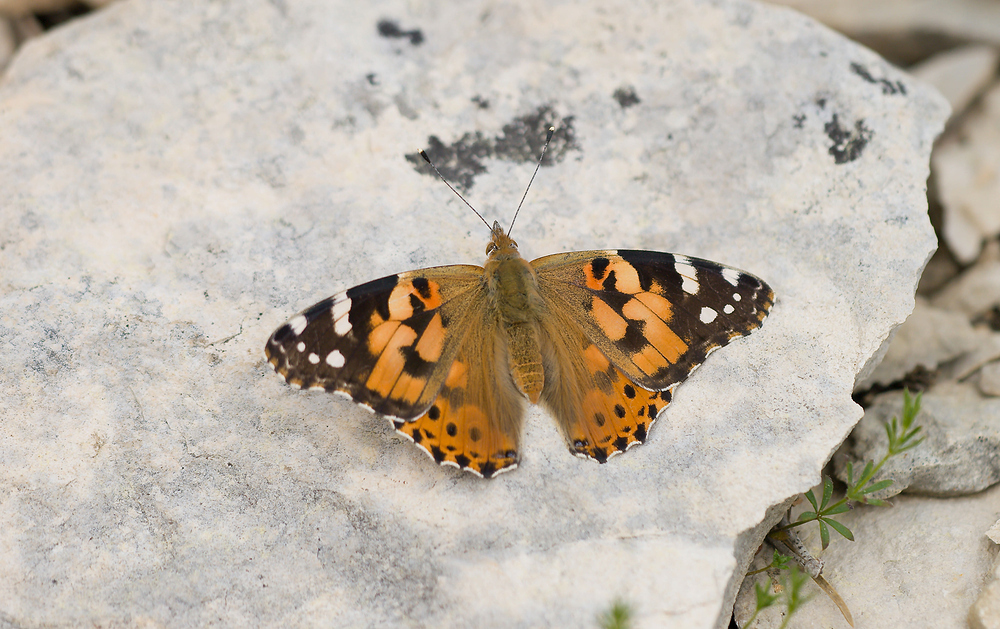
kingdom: Animalia
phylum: Arthropoda
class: Insecta
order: Lepidoptera
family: Nymphalidae
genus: Vanessa
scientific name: Vanessa cardui
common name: Painted lady
